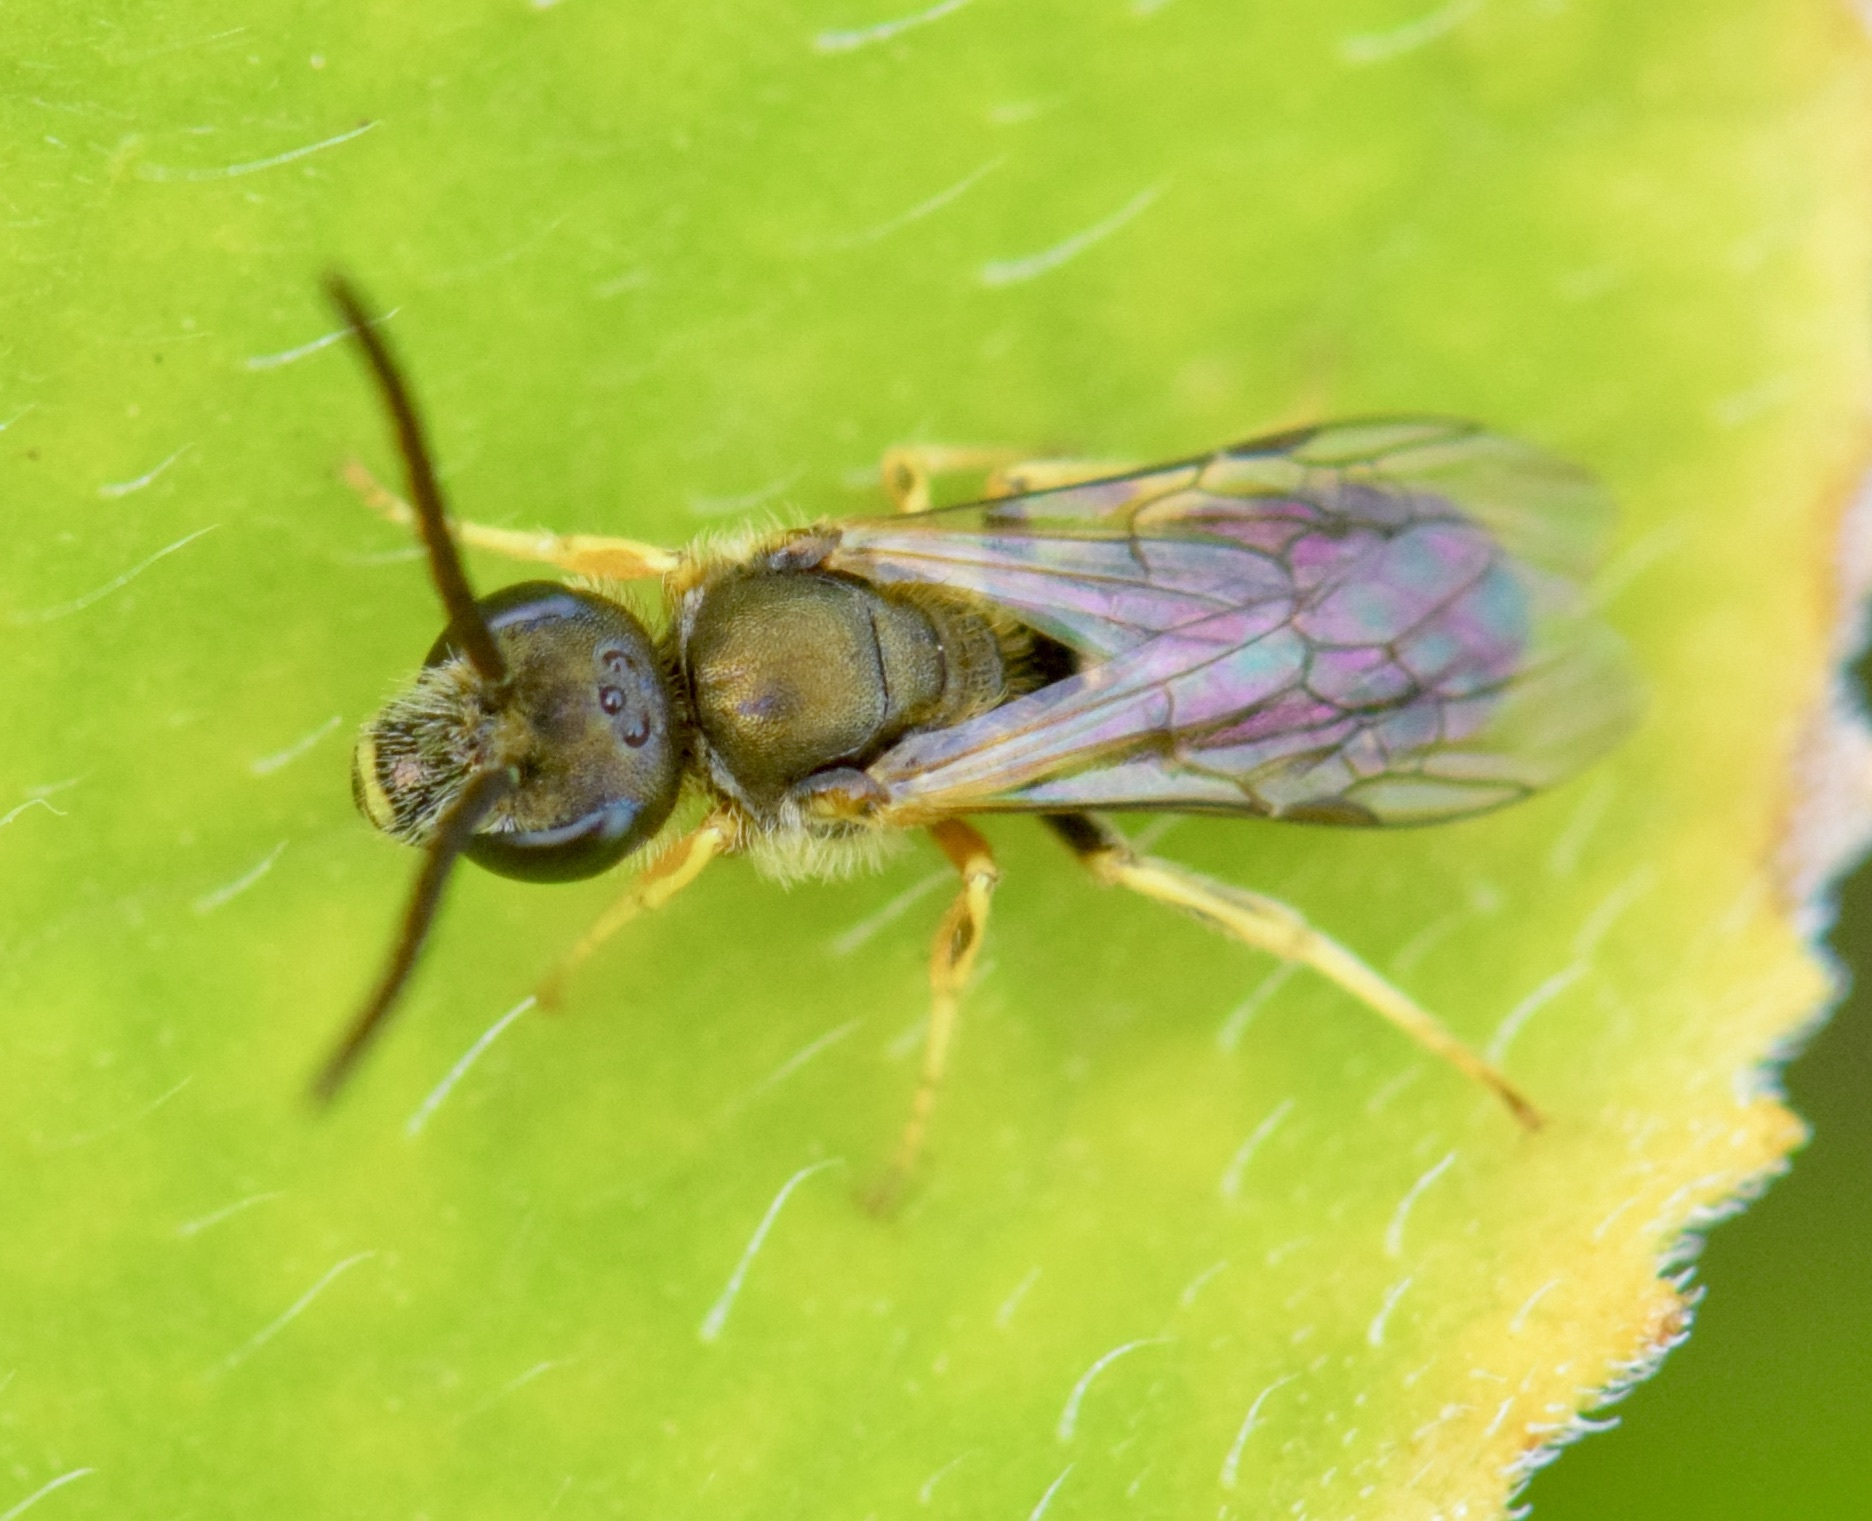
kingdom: Animalia
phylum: Arthropoda
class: Insecta
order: Hymenoptera
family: Halictidae
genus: Halictus
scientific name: Halictus confusus
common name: Southern bronze furrow bee
